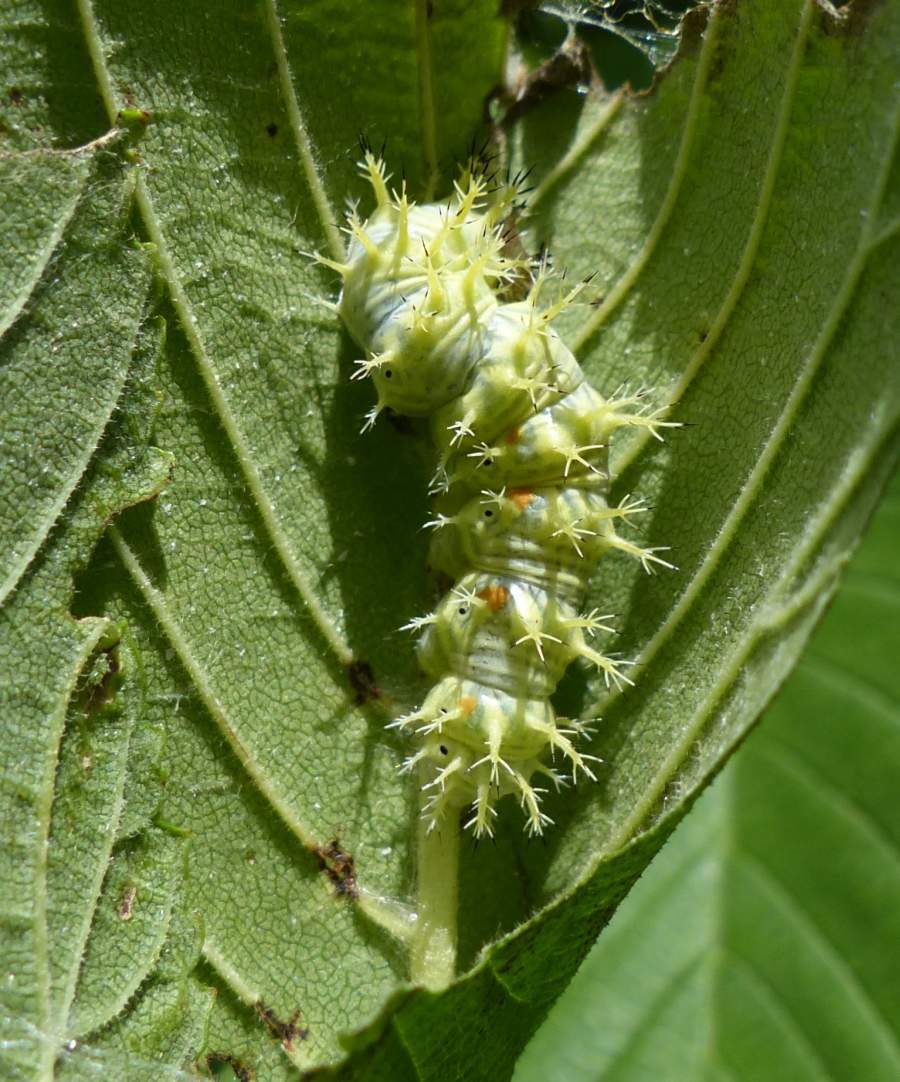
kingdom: Animalia
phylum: Arthropoda
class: Insecta
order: Lepidoptera
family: Nymphalidae
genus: Polygonia
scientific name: Polygonia comma
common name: Eastern comma
